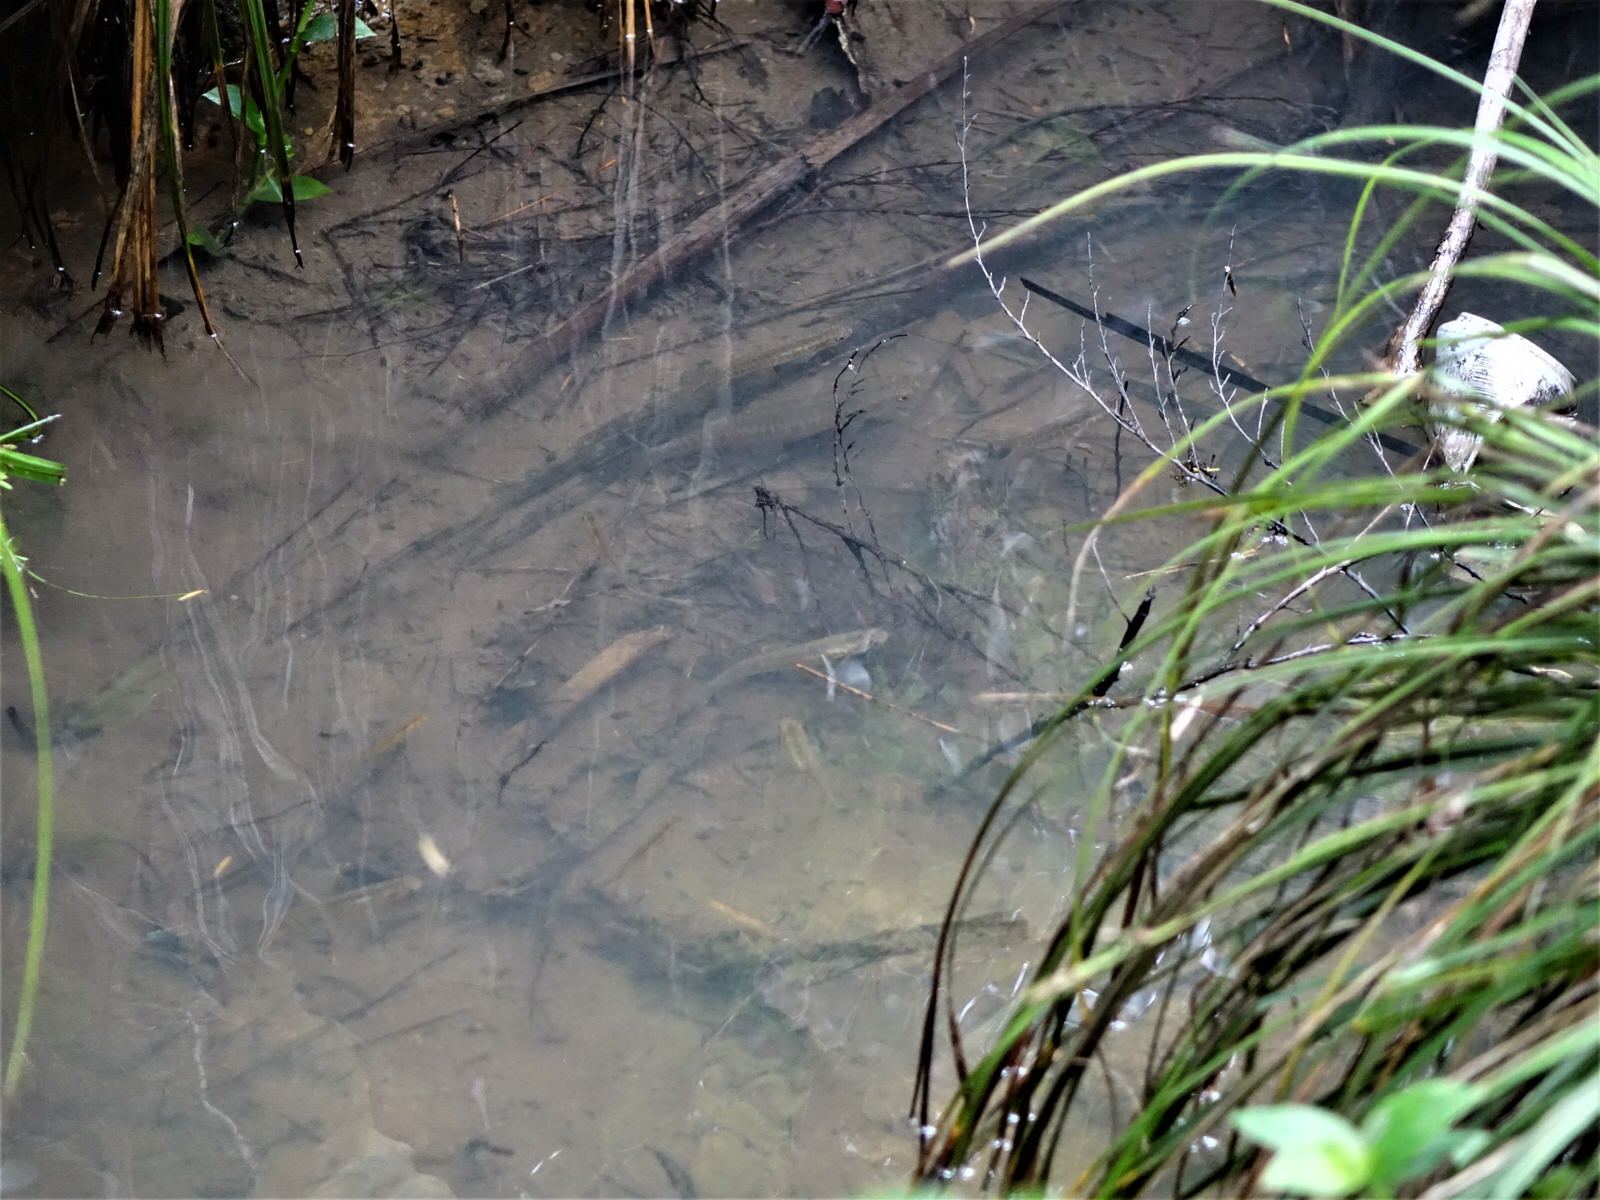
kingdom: Animalia
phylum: Chordata
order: Osmeriformes
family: Galaxiidae
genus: Galaxias
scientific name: Galaxias fasciatus
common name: Banded kokopu
